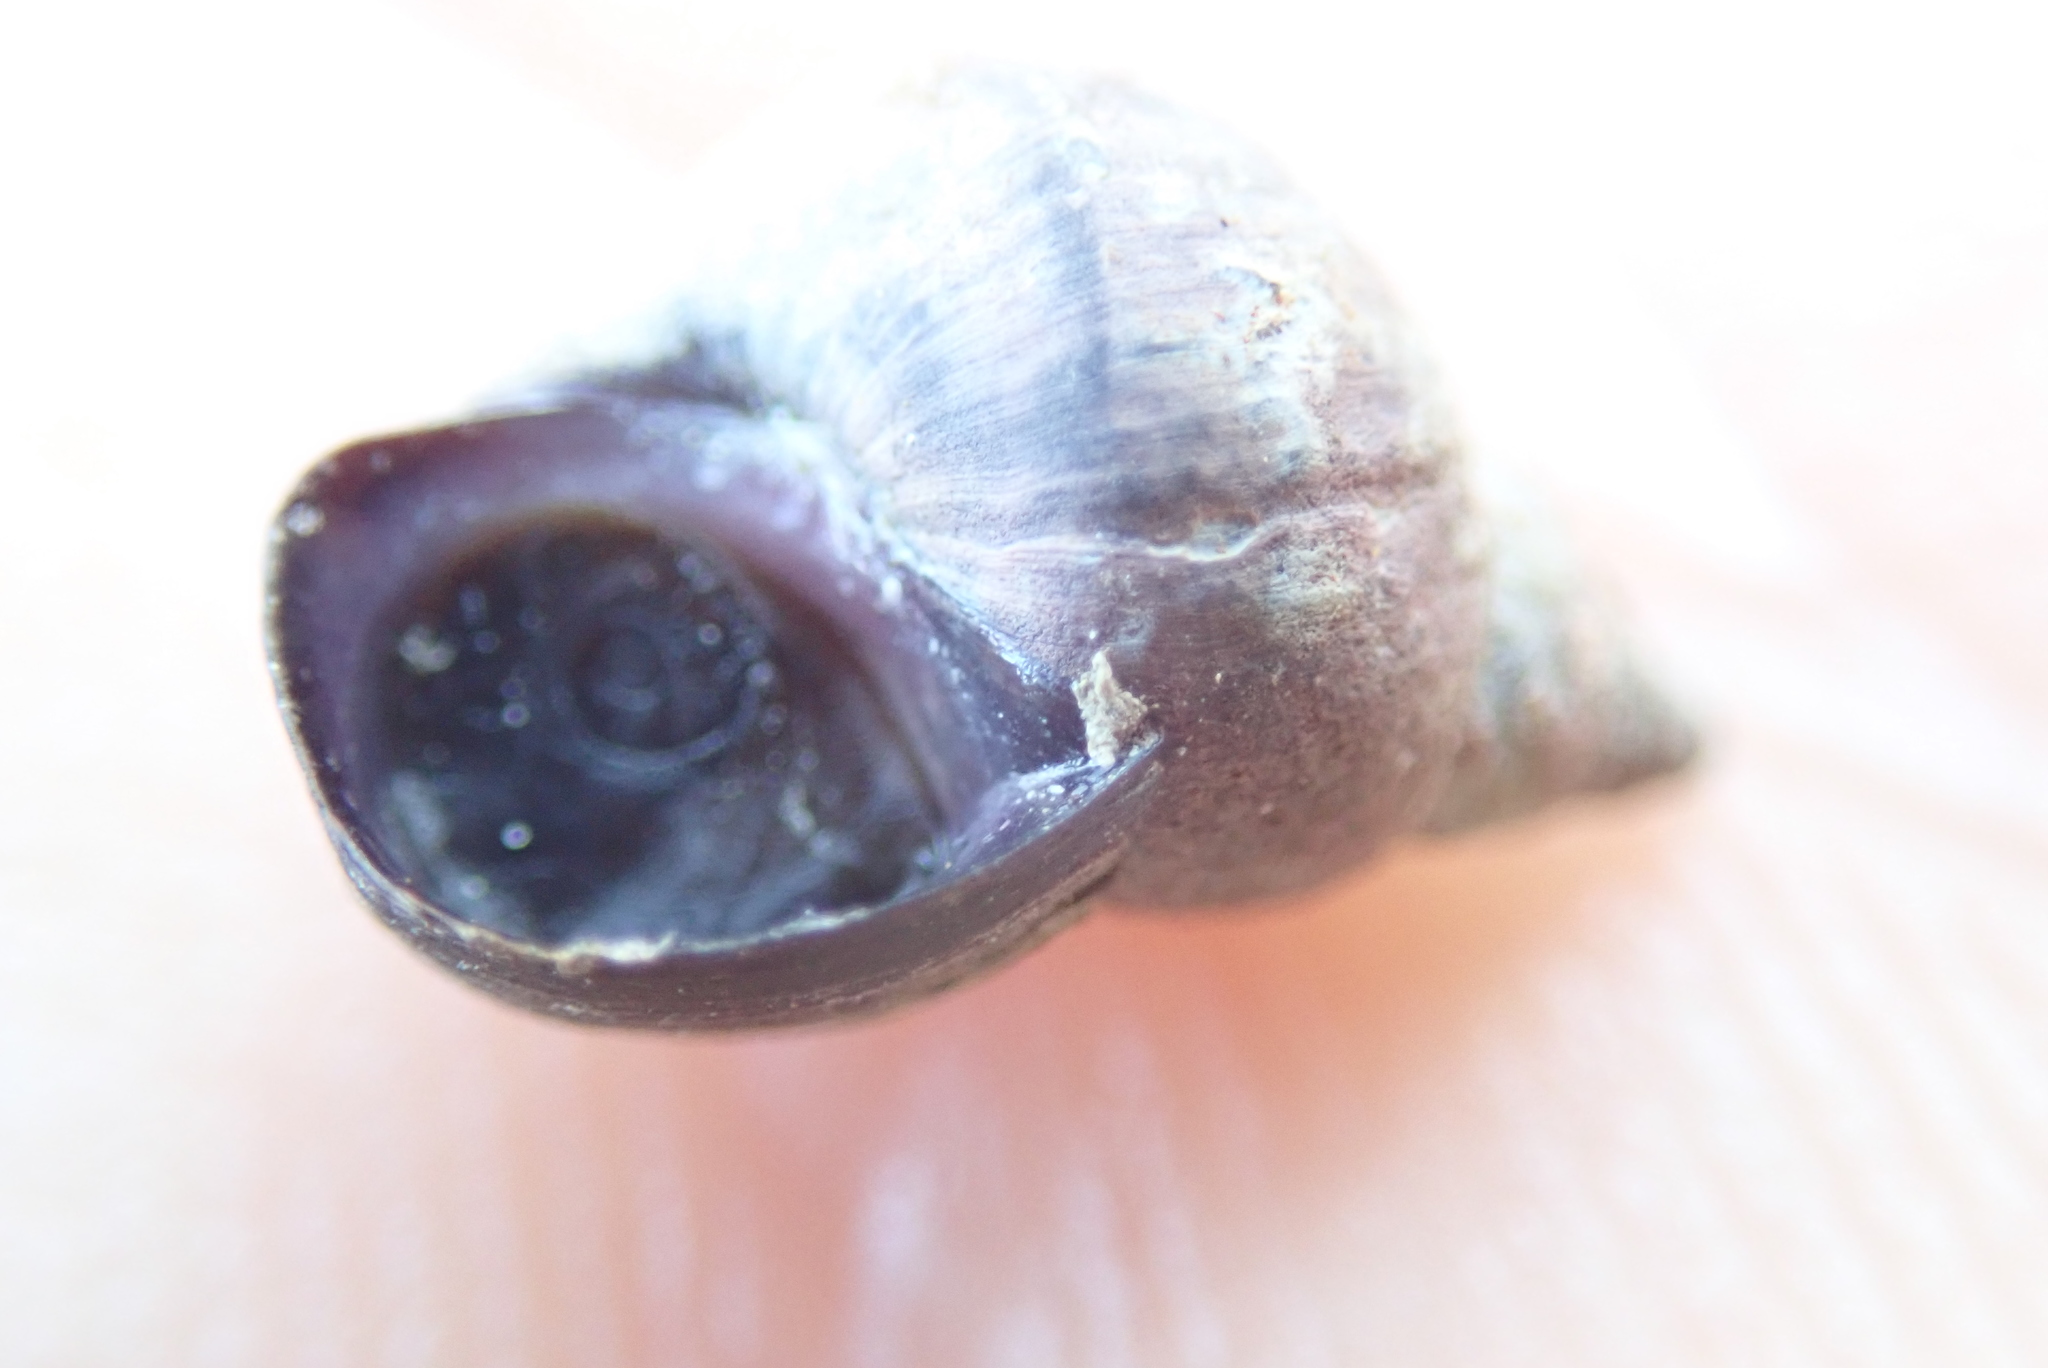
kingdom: Animalia
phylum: Mollusca
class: Gastropoda
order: Littorinimorpha
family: Littorinidae
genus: Littorina
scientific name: Littorina scutulata
